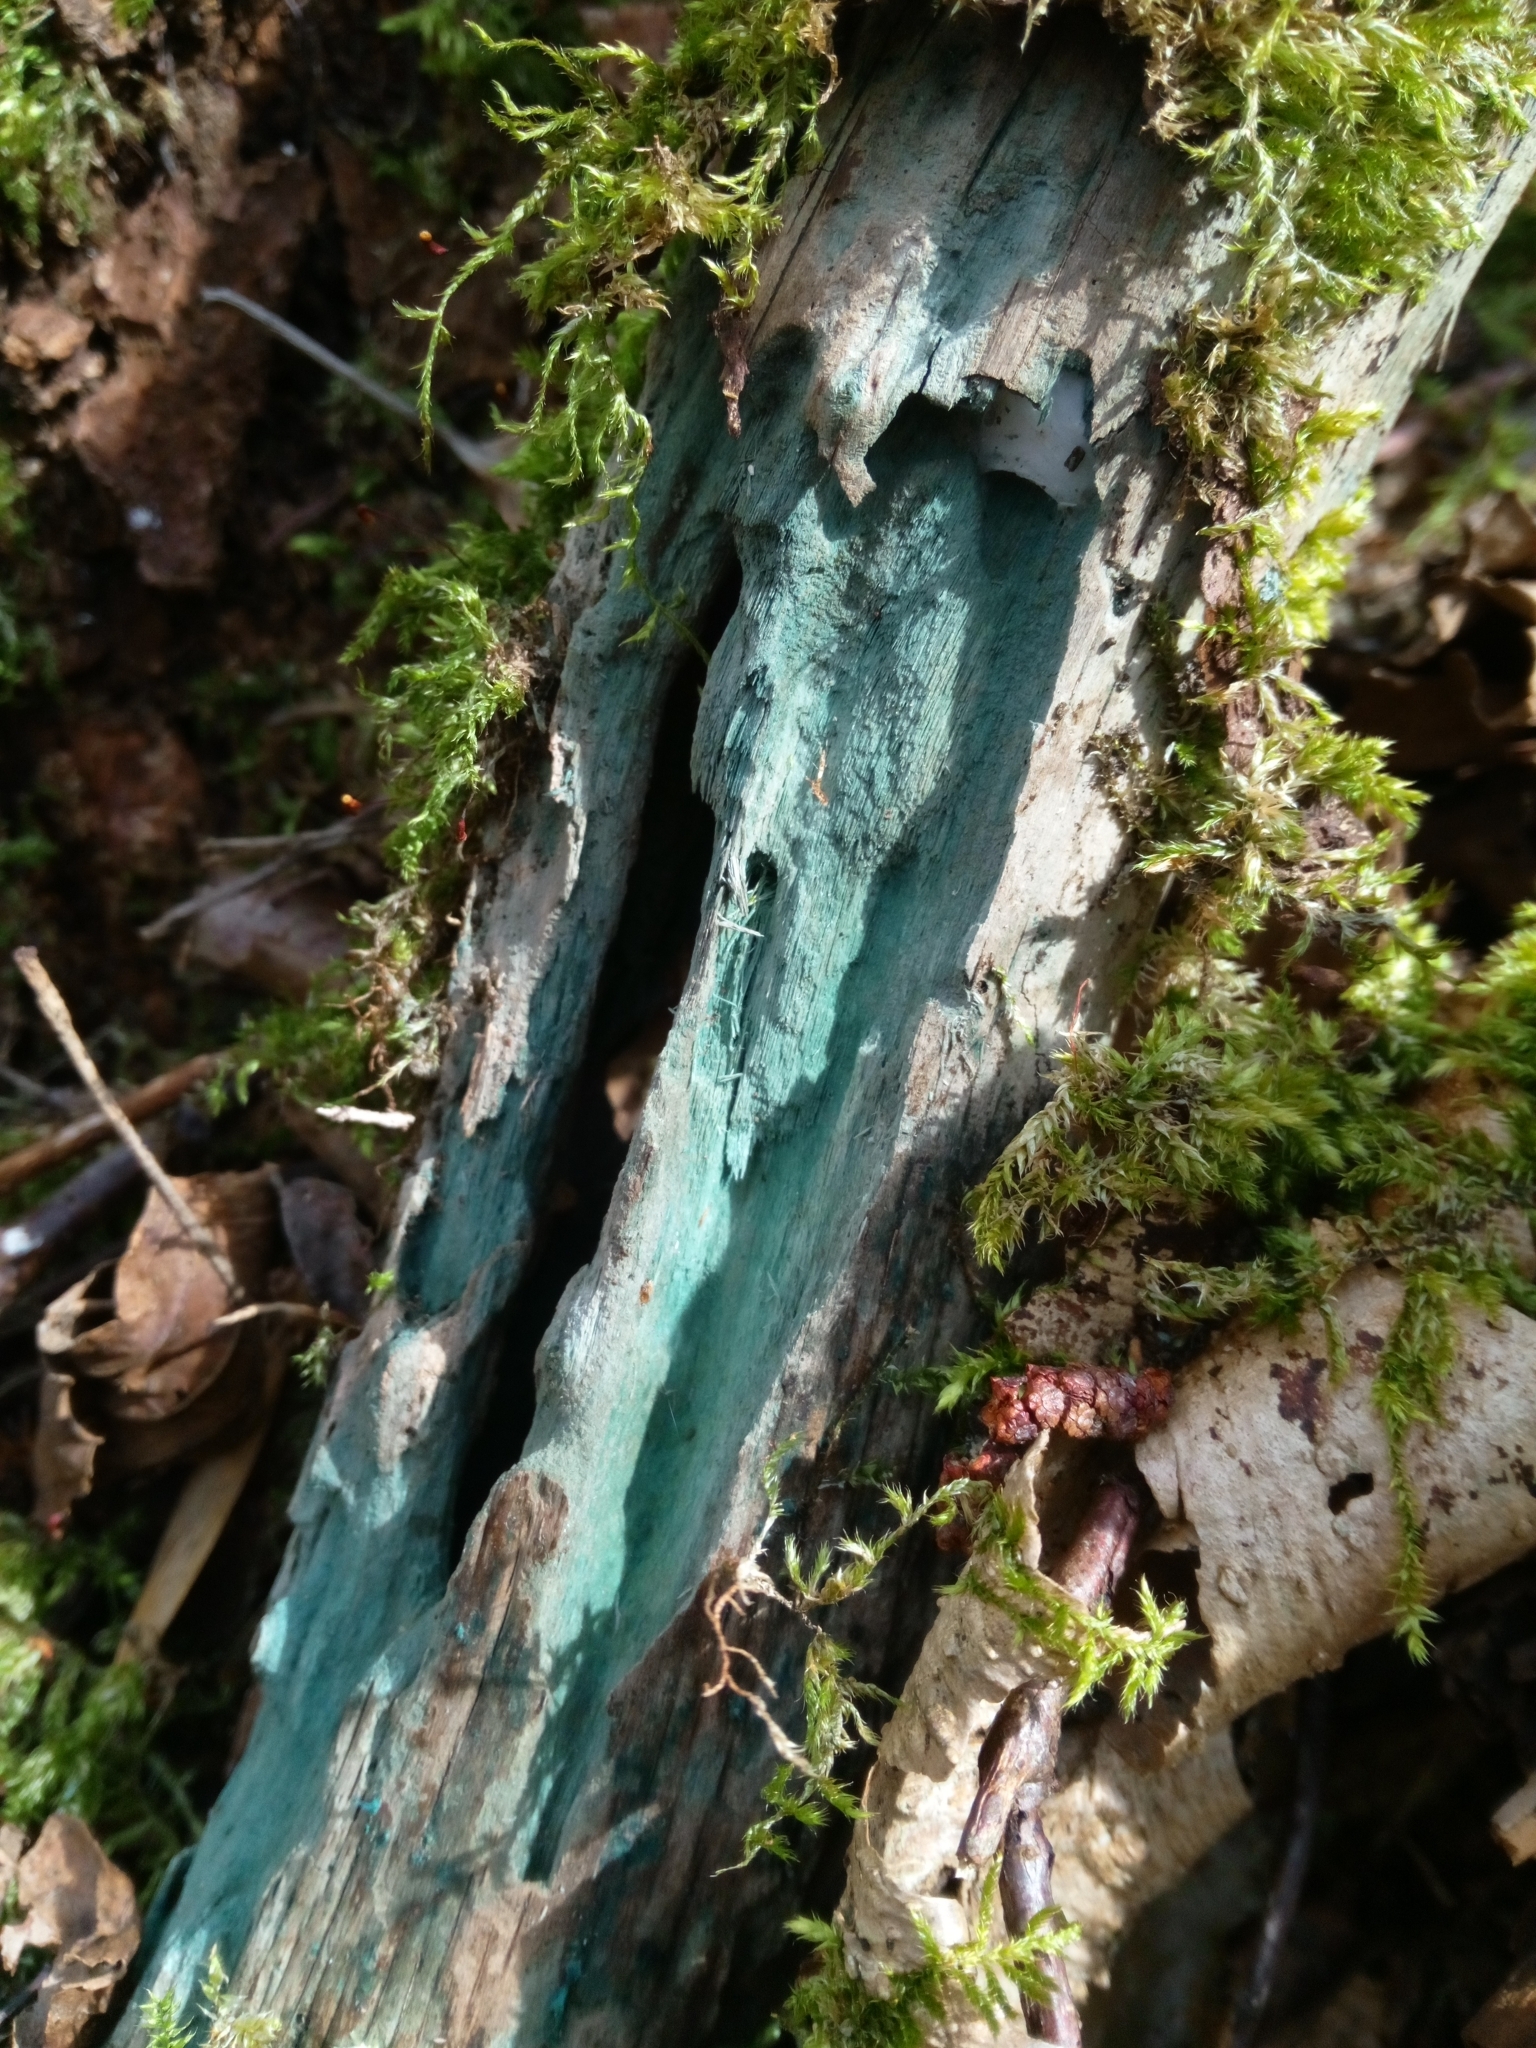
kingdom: Fungi
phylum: Ascomycota
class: Leotiomycetes
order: Helotiales
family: Chlorociboriaceae
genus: Chlorociboria
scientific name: Chlorociboria
